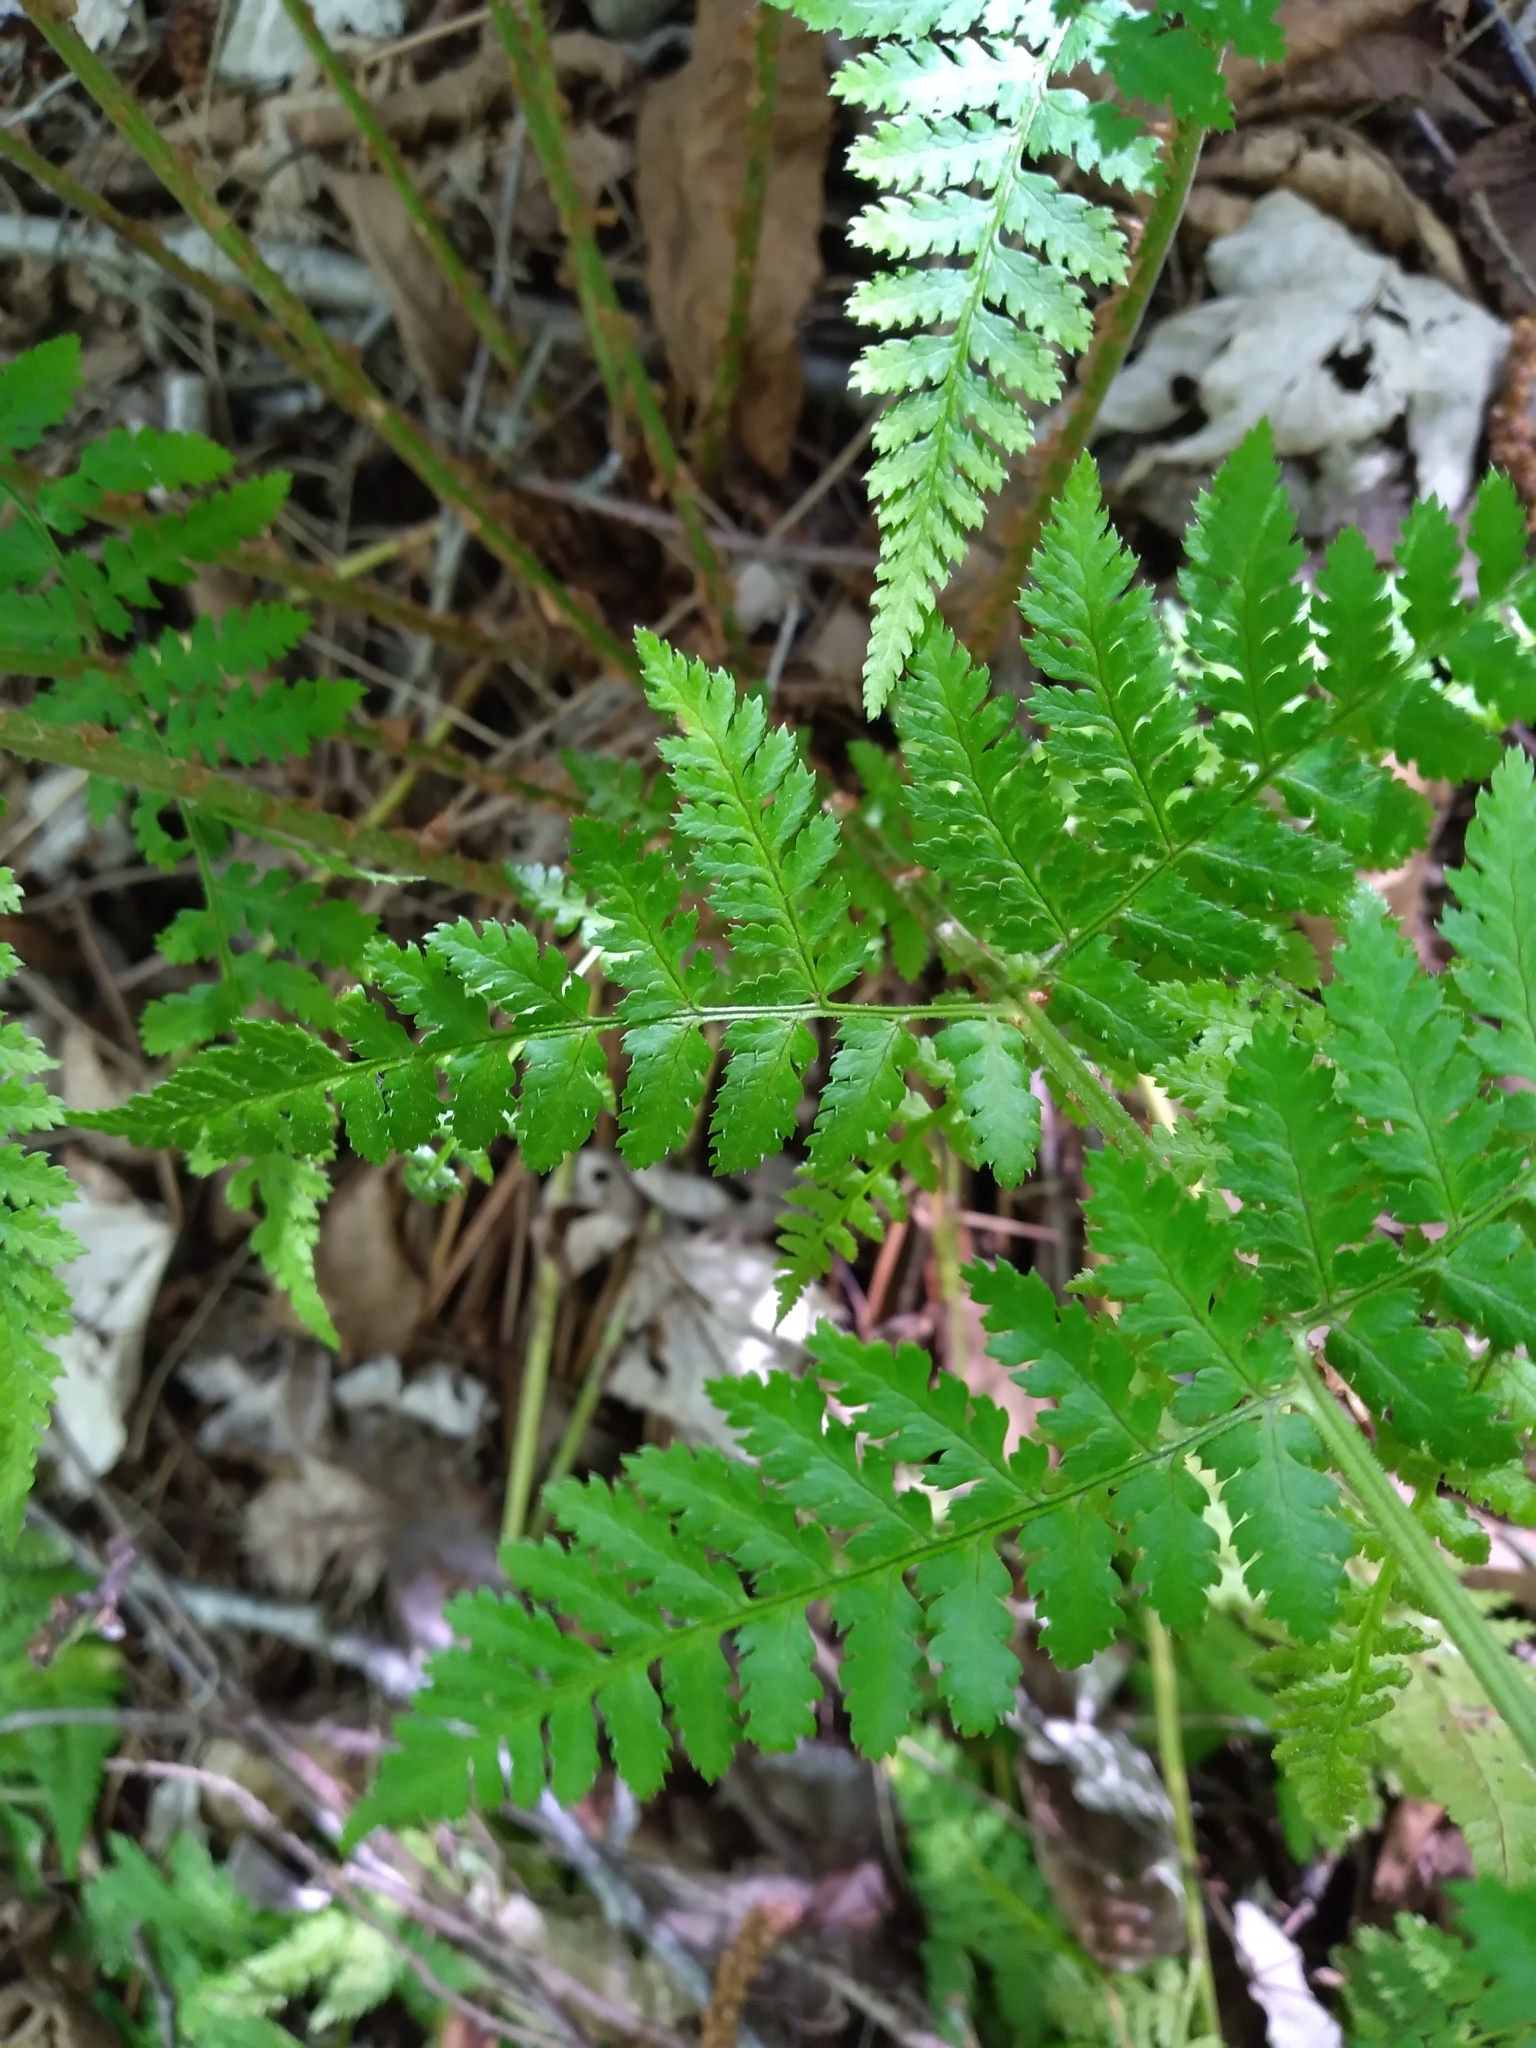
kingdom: Plantae
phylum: Tracheophyta
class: Polypodiopsida
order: Polypodiales
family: Dryopteridaceae
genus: Dryopteris
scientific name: Dryopteris intermedia
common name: Evergreen wood fern
